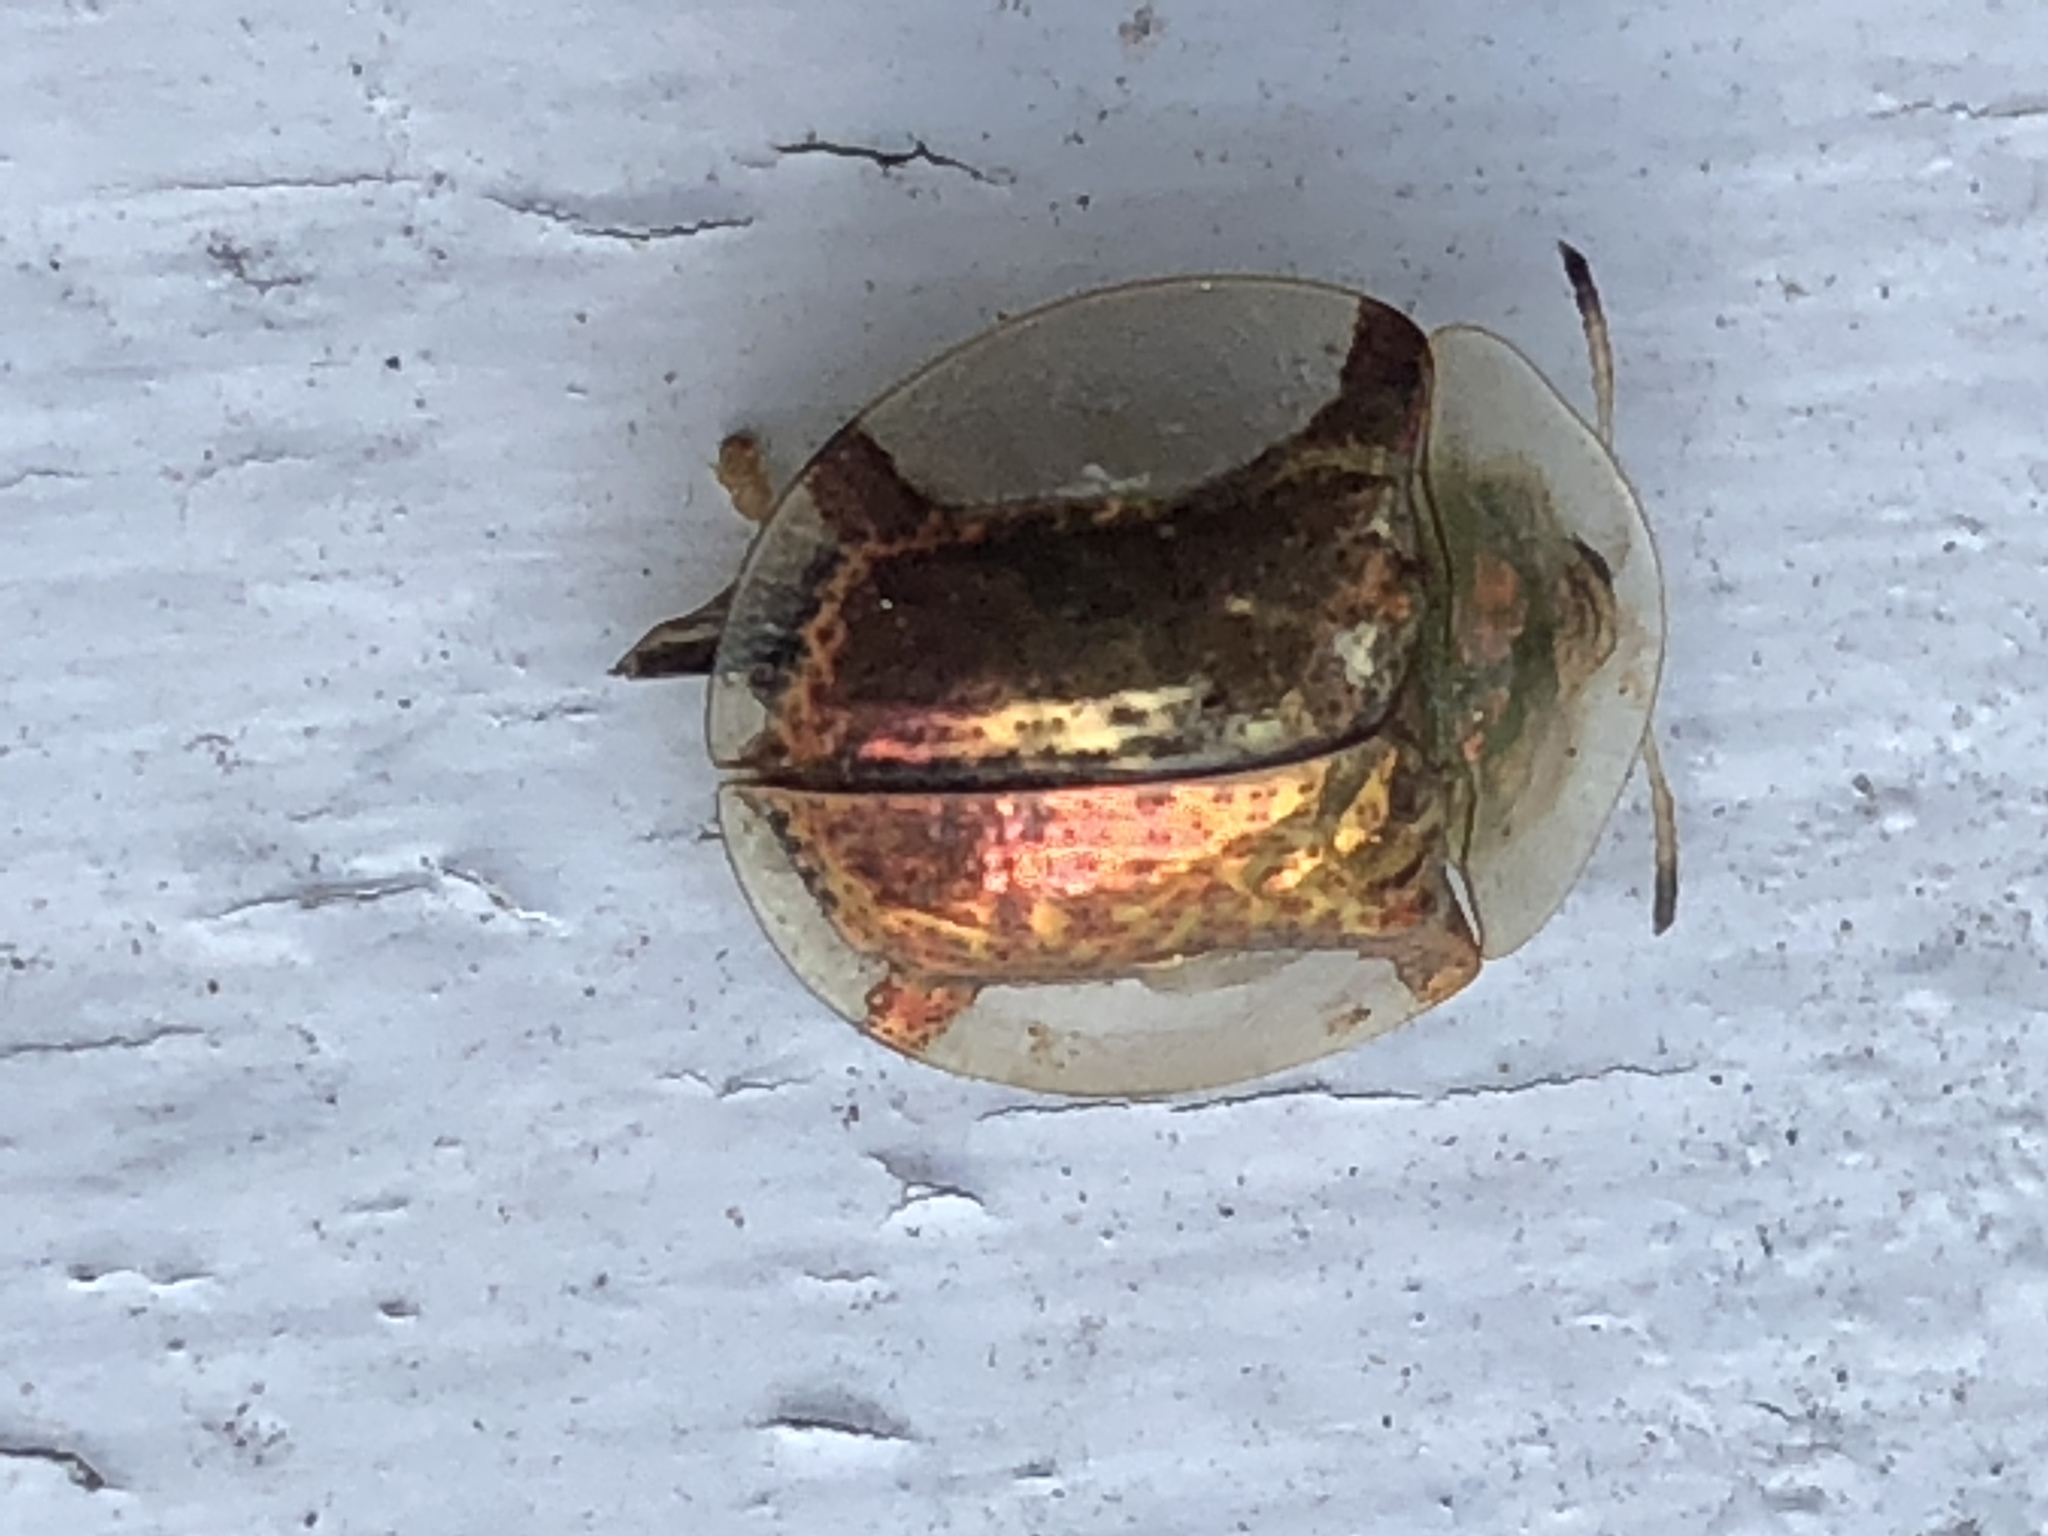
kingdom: Animalia
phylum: Arthropoda
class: Insecta
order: Coleoptera
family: Chrysomelidae
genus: Aspidimorpha
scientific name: Aspidimorpha quadriremis
